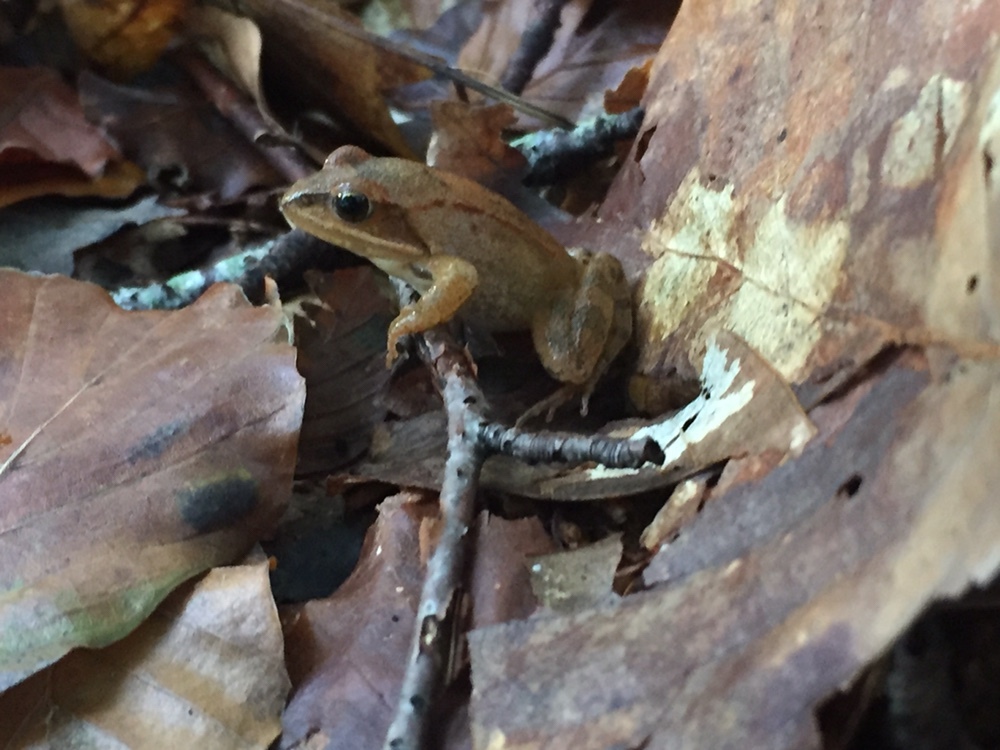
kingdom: Animalia
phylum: Chordata
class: Amphibia
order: Anura
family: Ranidae
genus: Rana
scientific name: Rana dalmatina
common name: Agile frog
